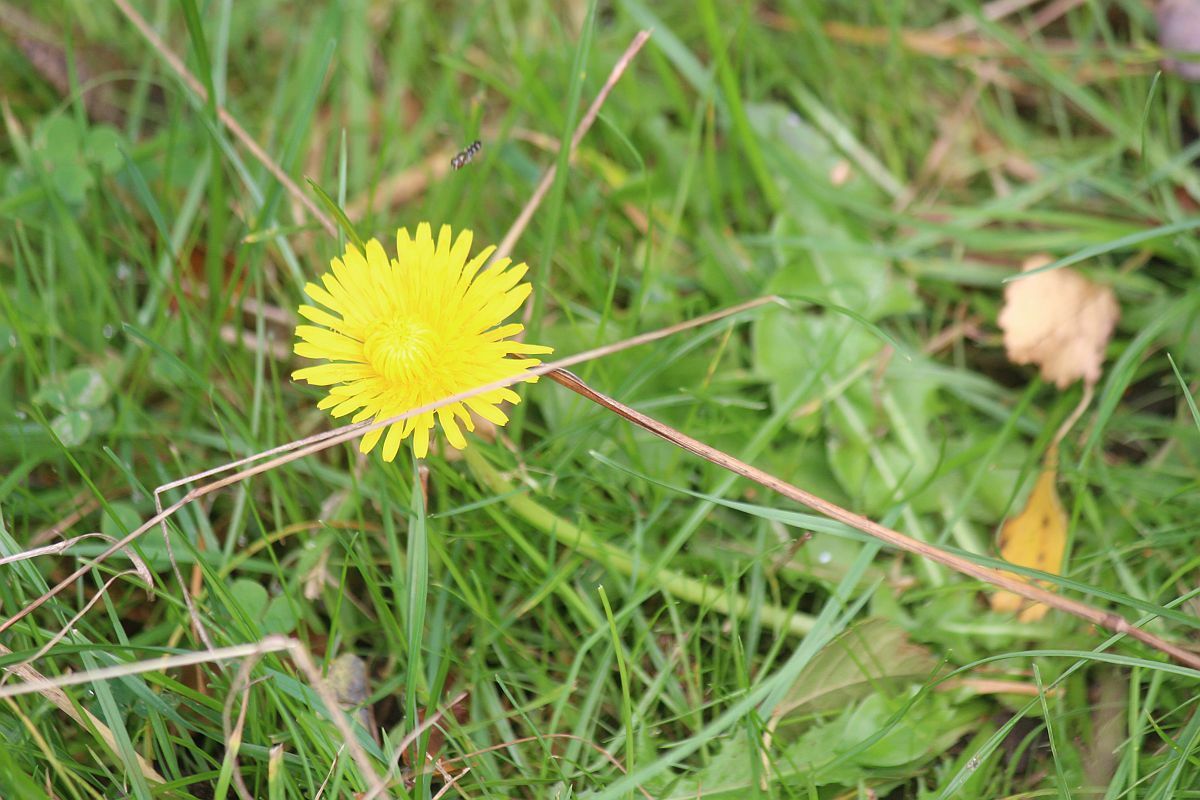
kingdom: Plantae
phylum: Tracheophyta
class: Magnoliopsida
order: Asterales
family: Asteraceae
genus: Taraxacum
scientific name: Taraxacum officinale
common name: Common dandelion
